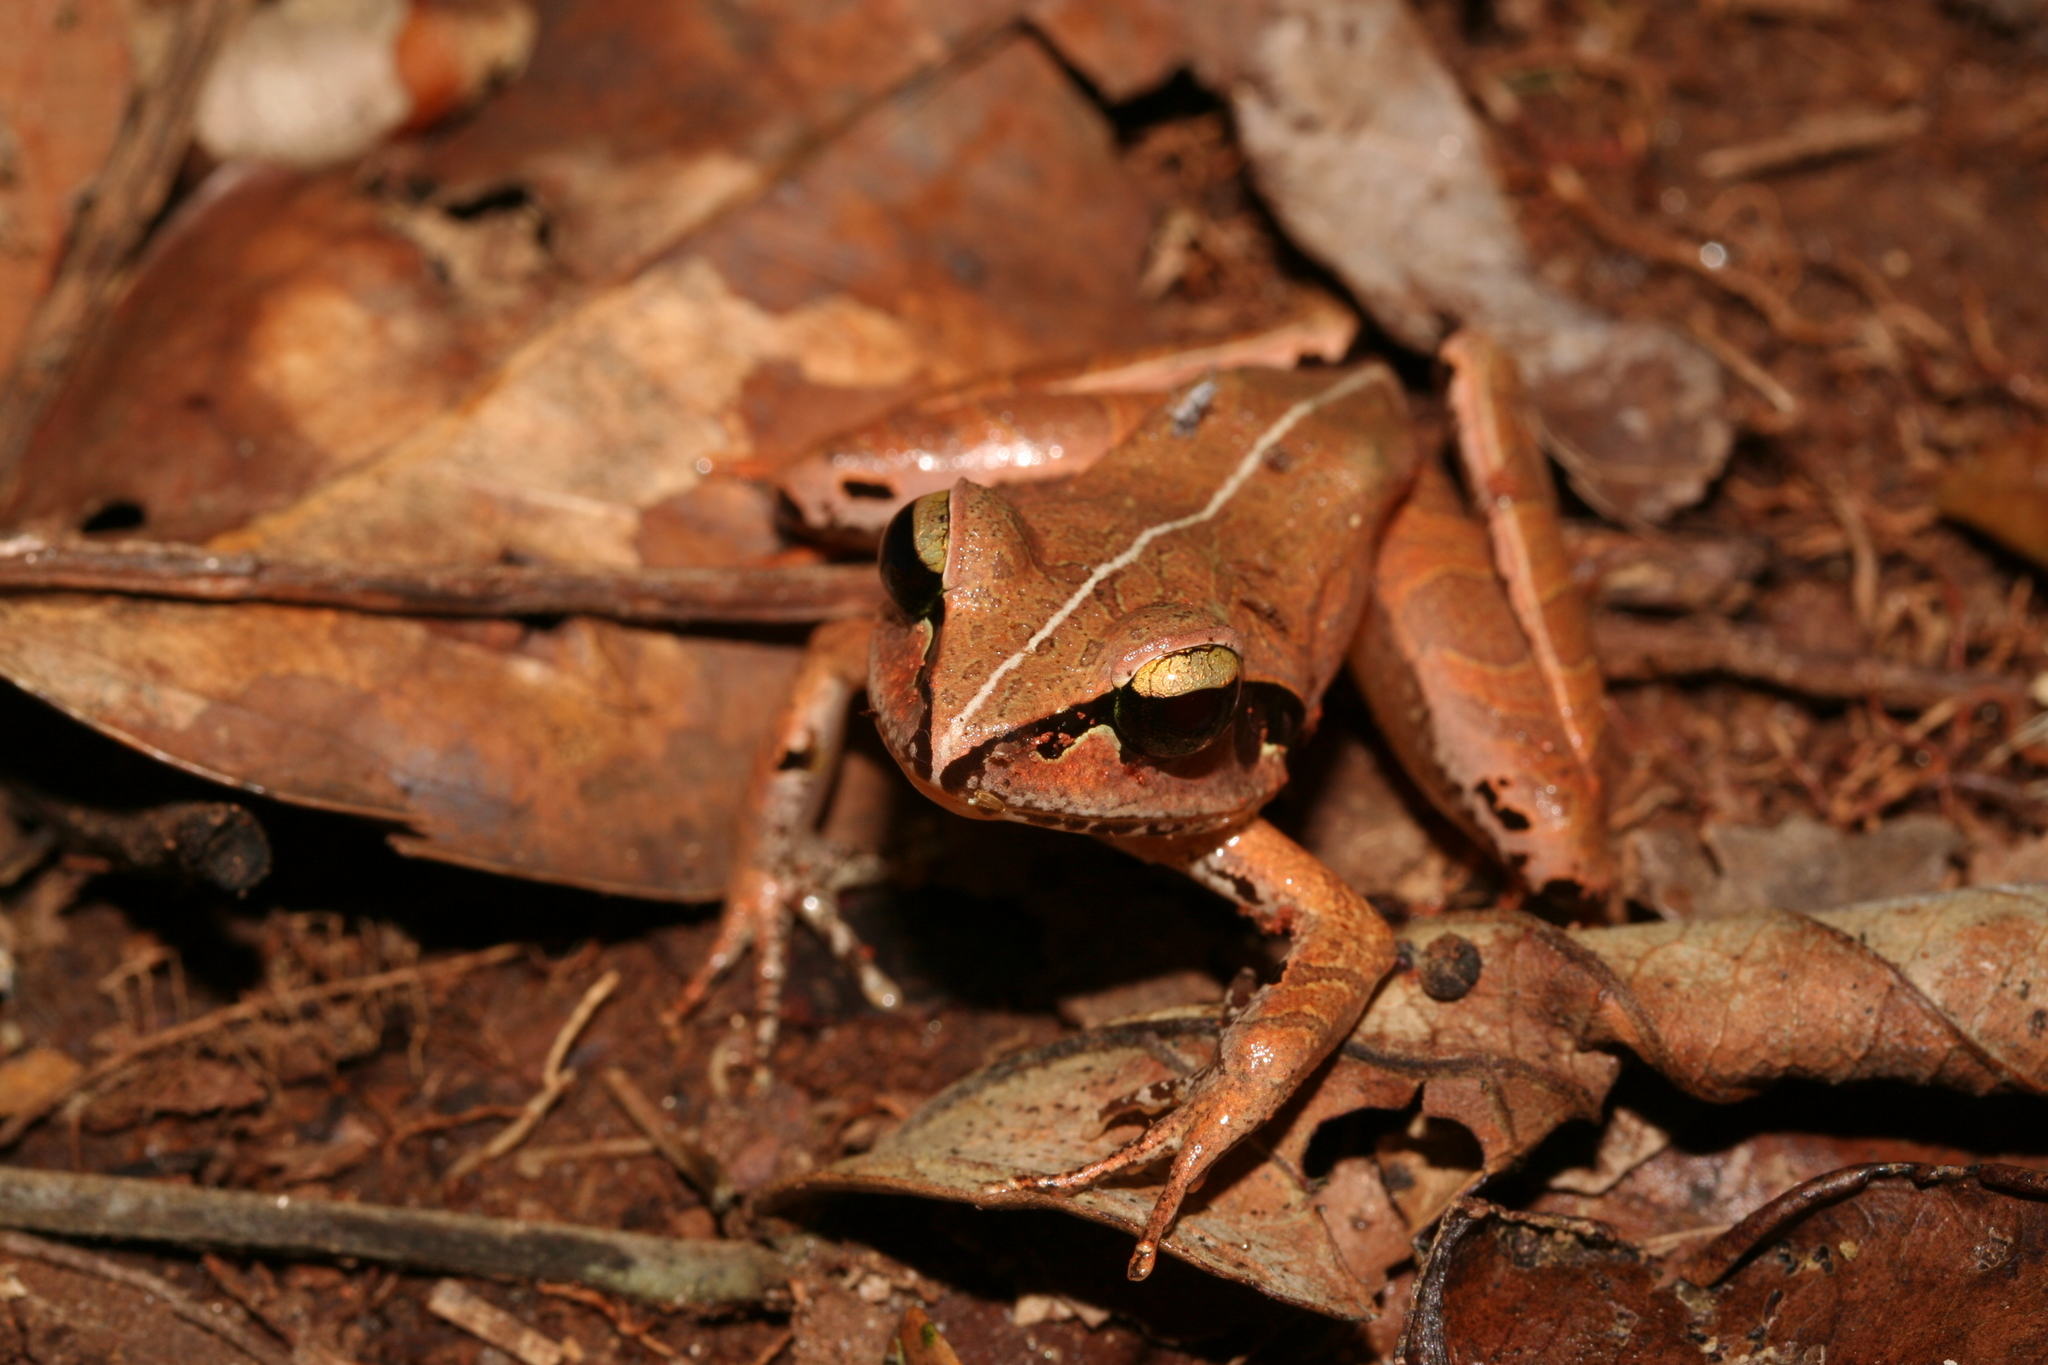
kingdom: Animalia
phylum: Chordata
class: Amphibia
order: Anura
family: Mantellidae
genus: Aglyptodactylus
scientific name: Aglyptodactylus madagascariensis
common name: Madagascar jumping frog
